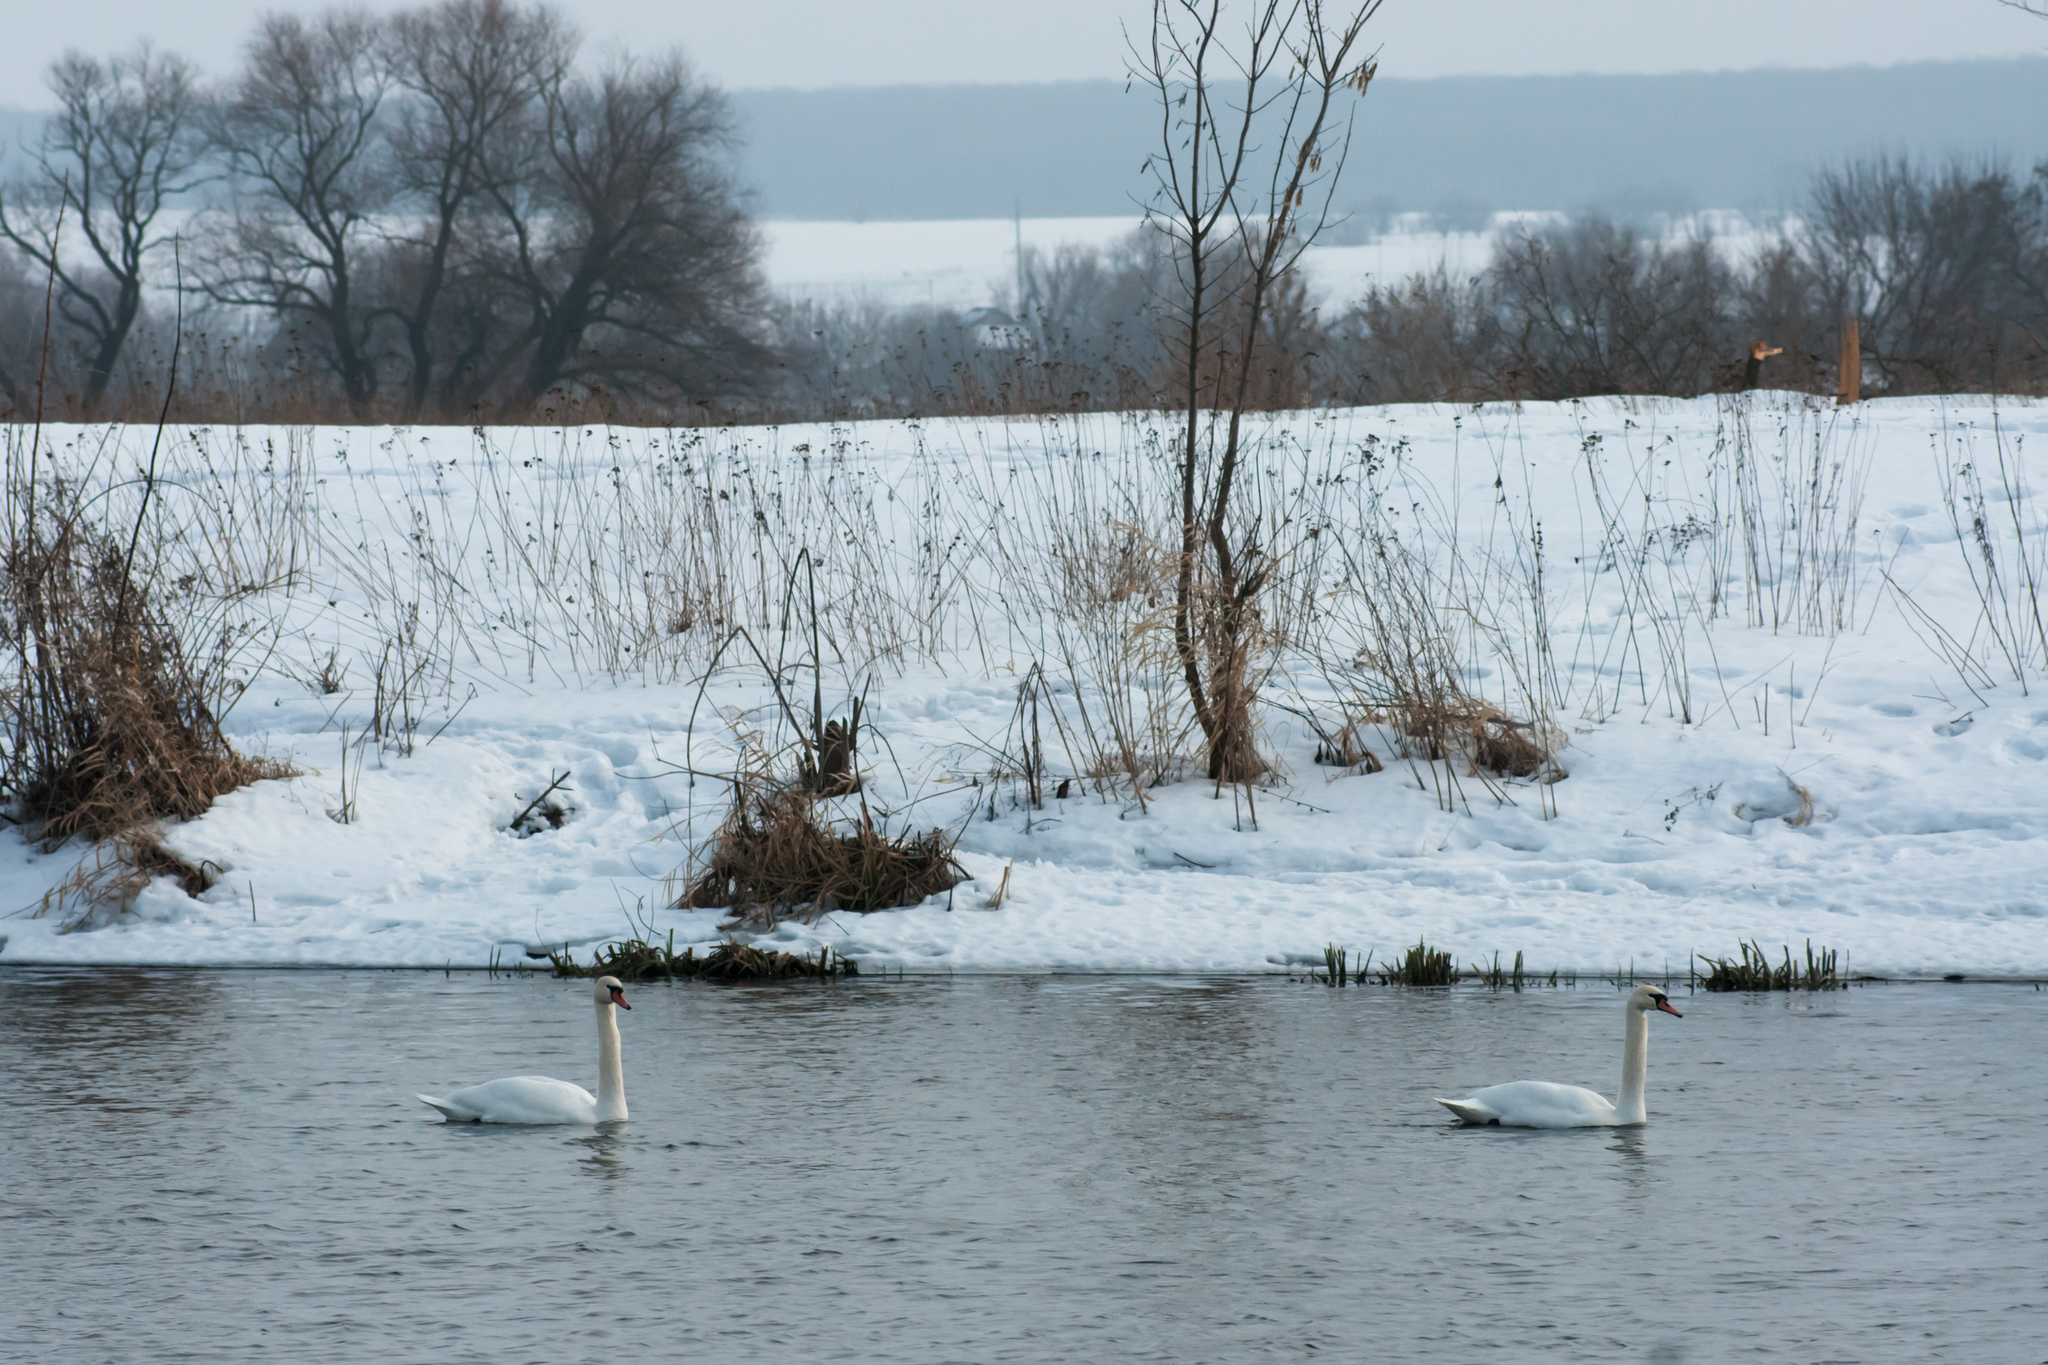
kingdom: Animalia
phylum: Chordata
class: Aves
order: Anseriformes
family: Anatidae
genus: Cygnus
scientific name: Cygnus olor
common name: Mute swan
